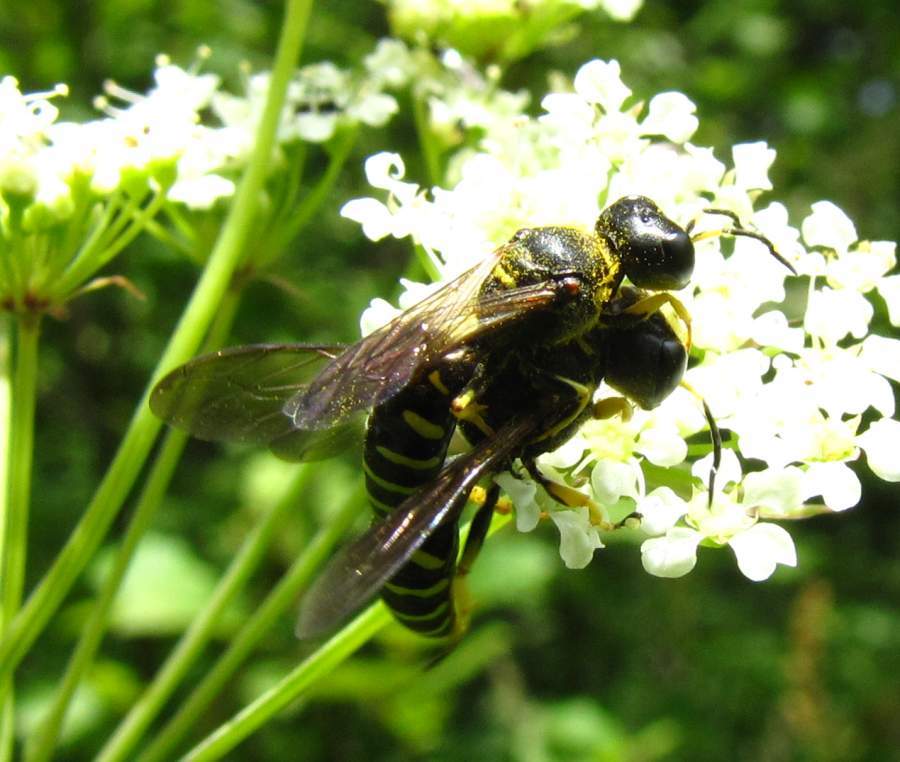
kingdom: Animalia
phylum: Arthropoda
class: Insecta
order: Hymenoptera
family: Crabronidae
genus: Ectemnius
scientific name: Ectemnius arcuatus
